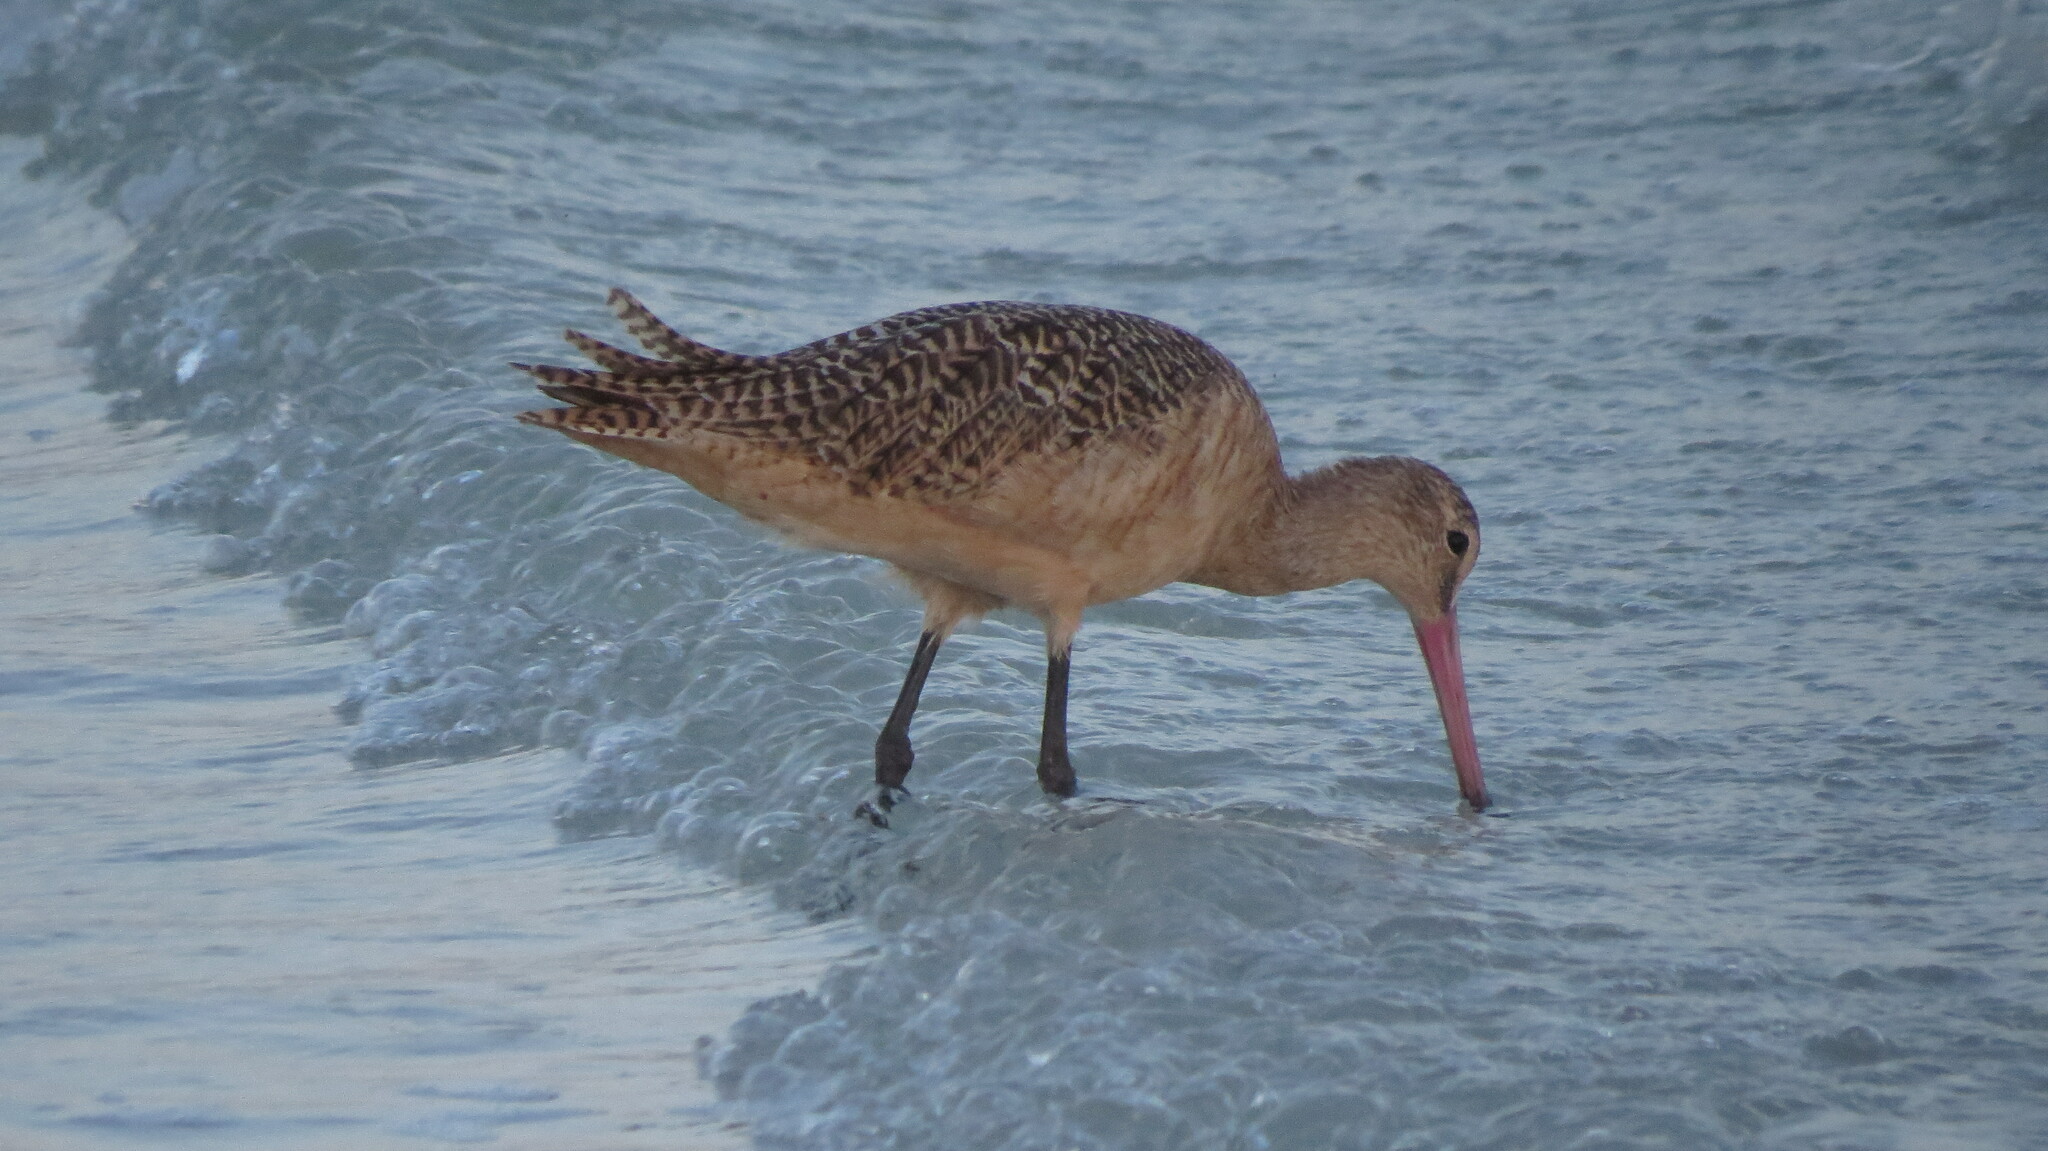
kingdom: Animalia
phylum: Chordata
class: Aves
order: Charadriiformes
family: Scolopacidae
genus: Limosa
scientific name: Limosa fedoa
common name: Marbled godwit
